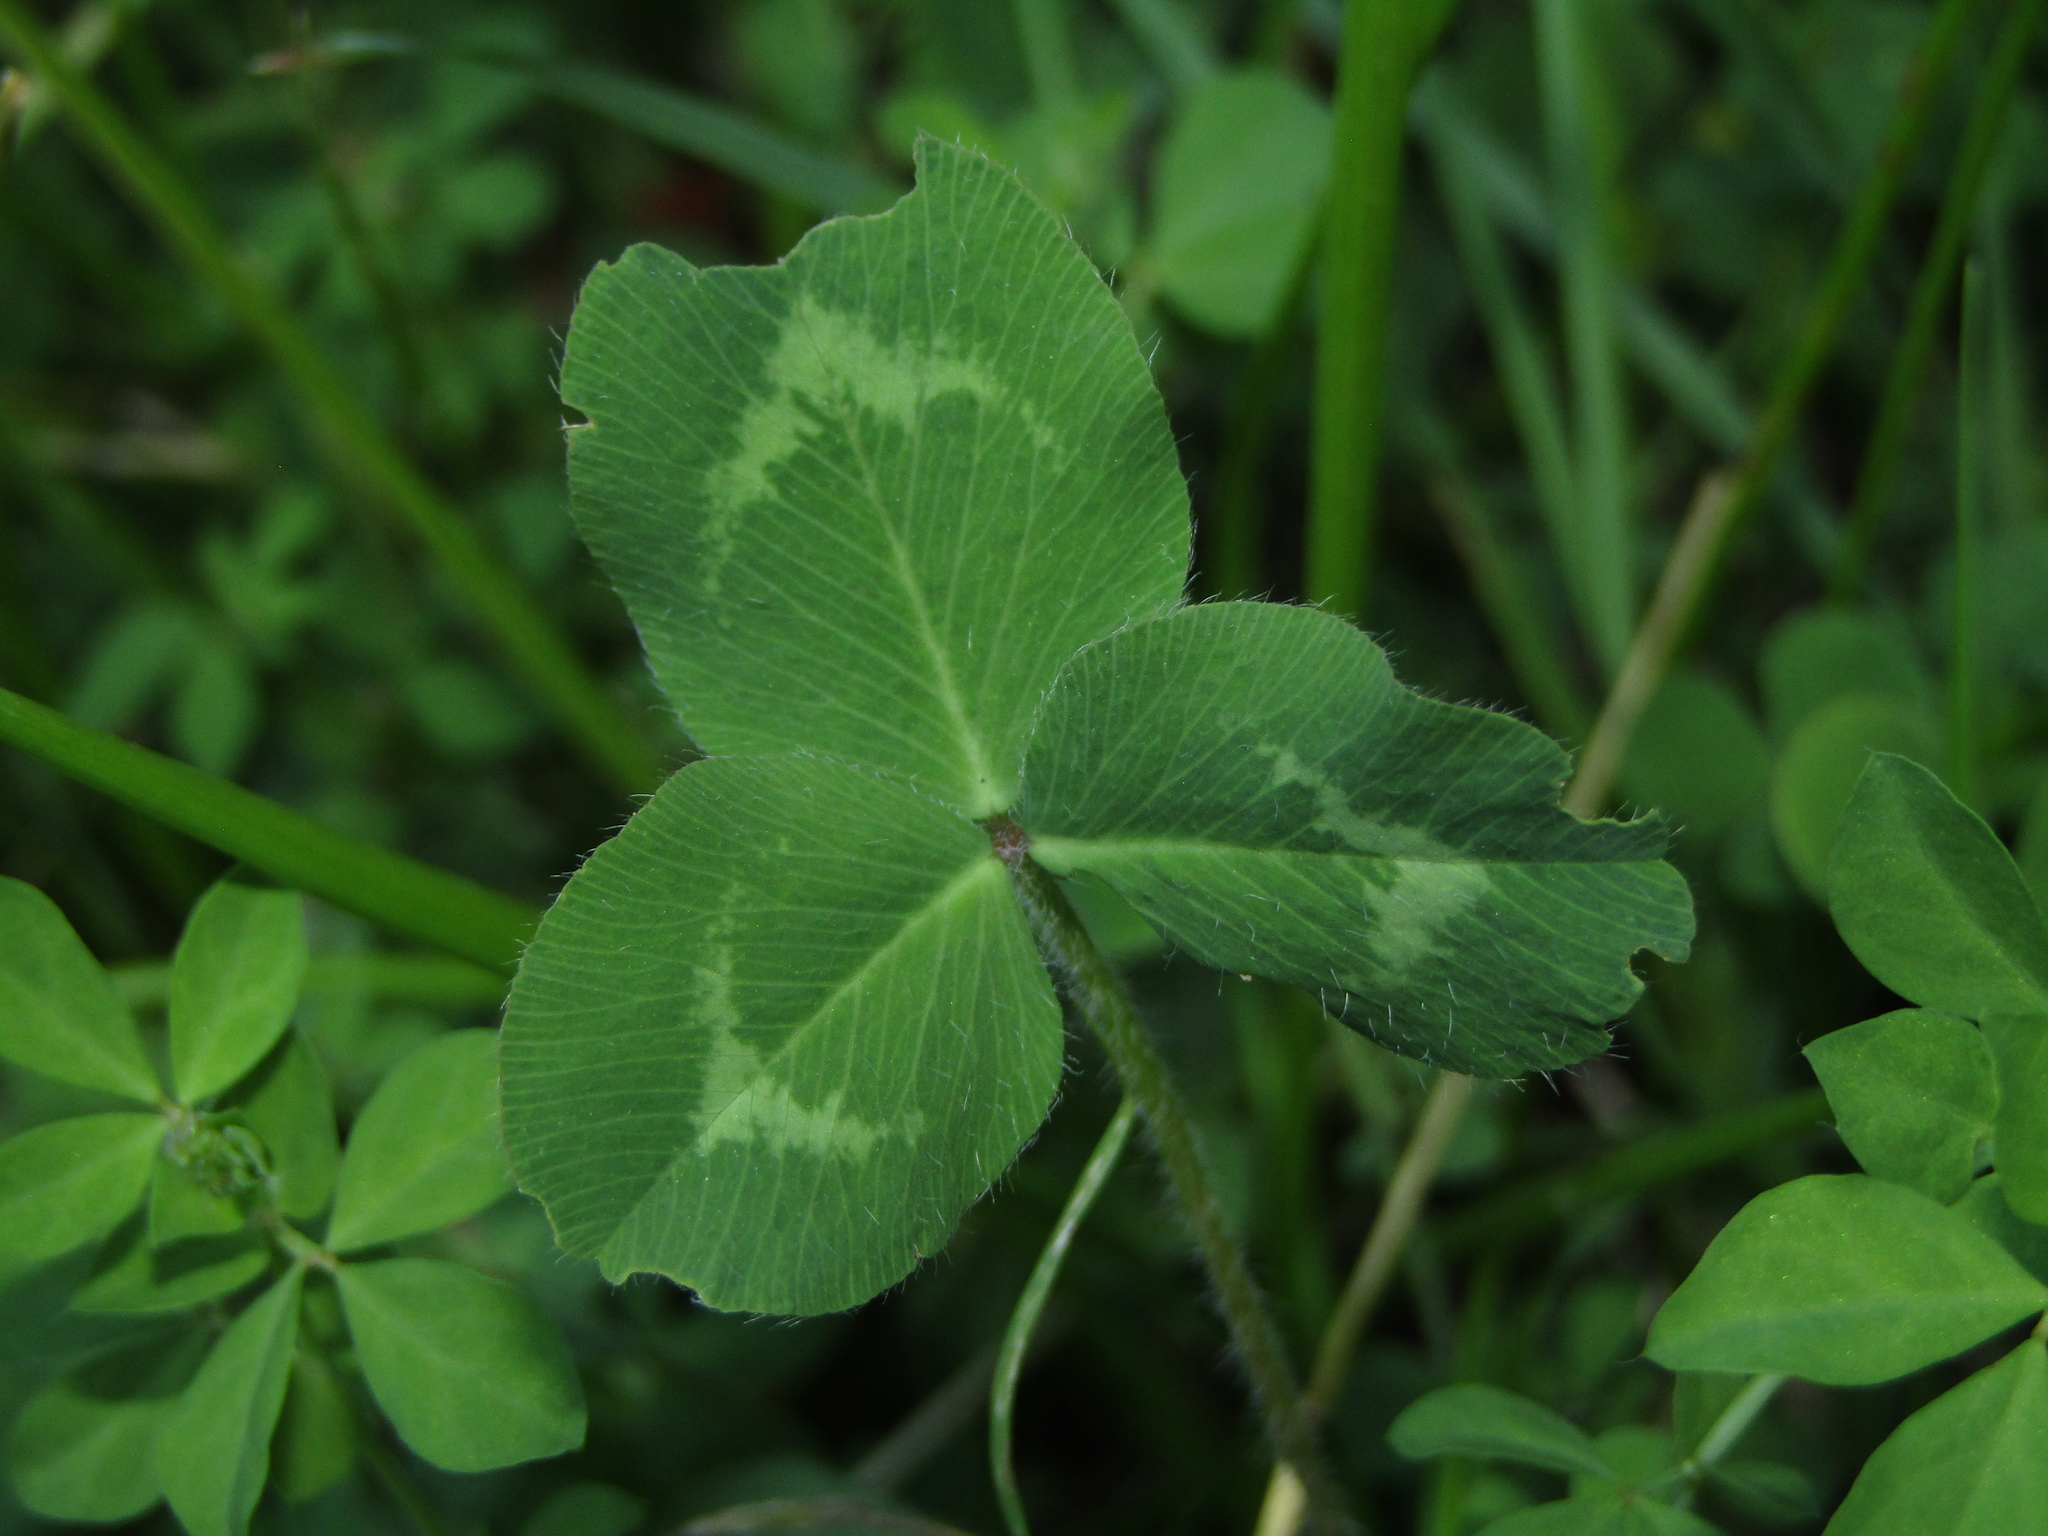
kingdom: Plantae
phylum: Tracheophyta
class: Magnoliopsida
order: Fabales
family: Fabaceae
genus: Trifolium
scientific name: Trifolium pratense
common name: Red clover
